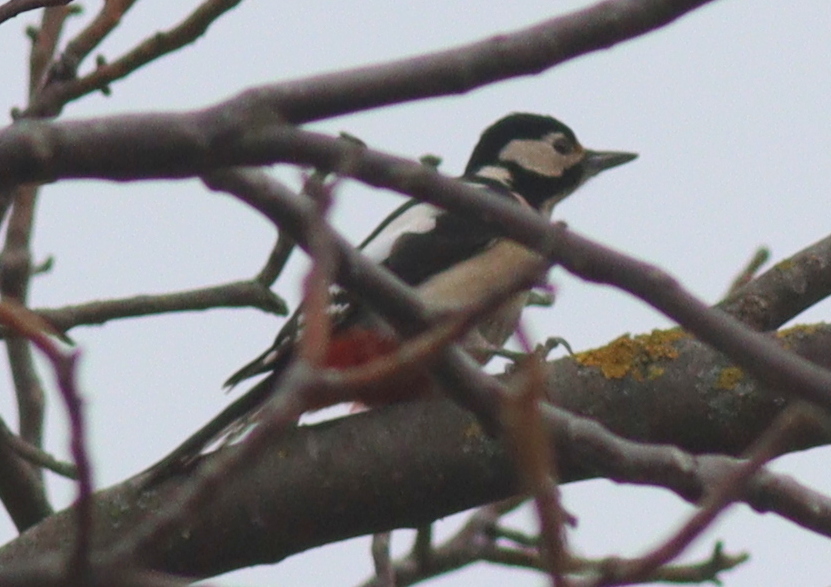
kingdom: Animalia
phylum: Chordata
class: Aves
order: Piciformes
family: Picidae
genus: Dendrocopos
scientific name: Dendrocopos major
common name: Great spotted woodpecker
